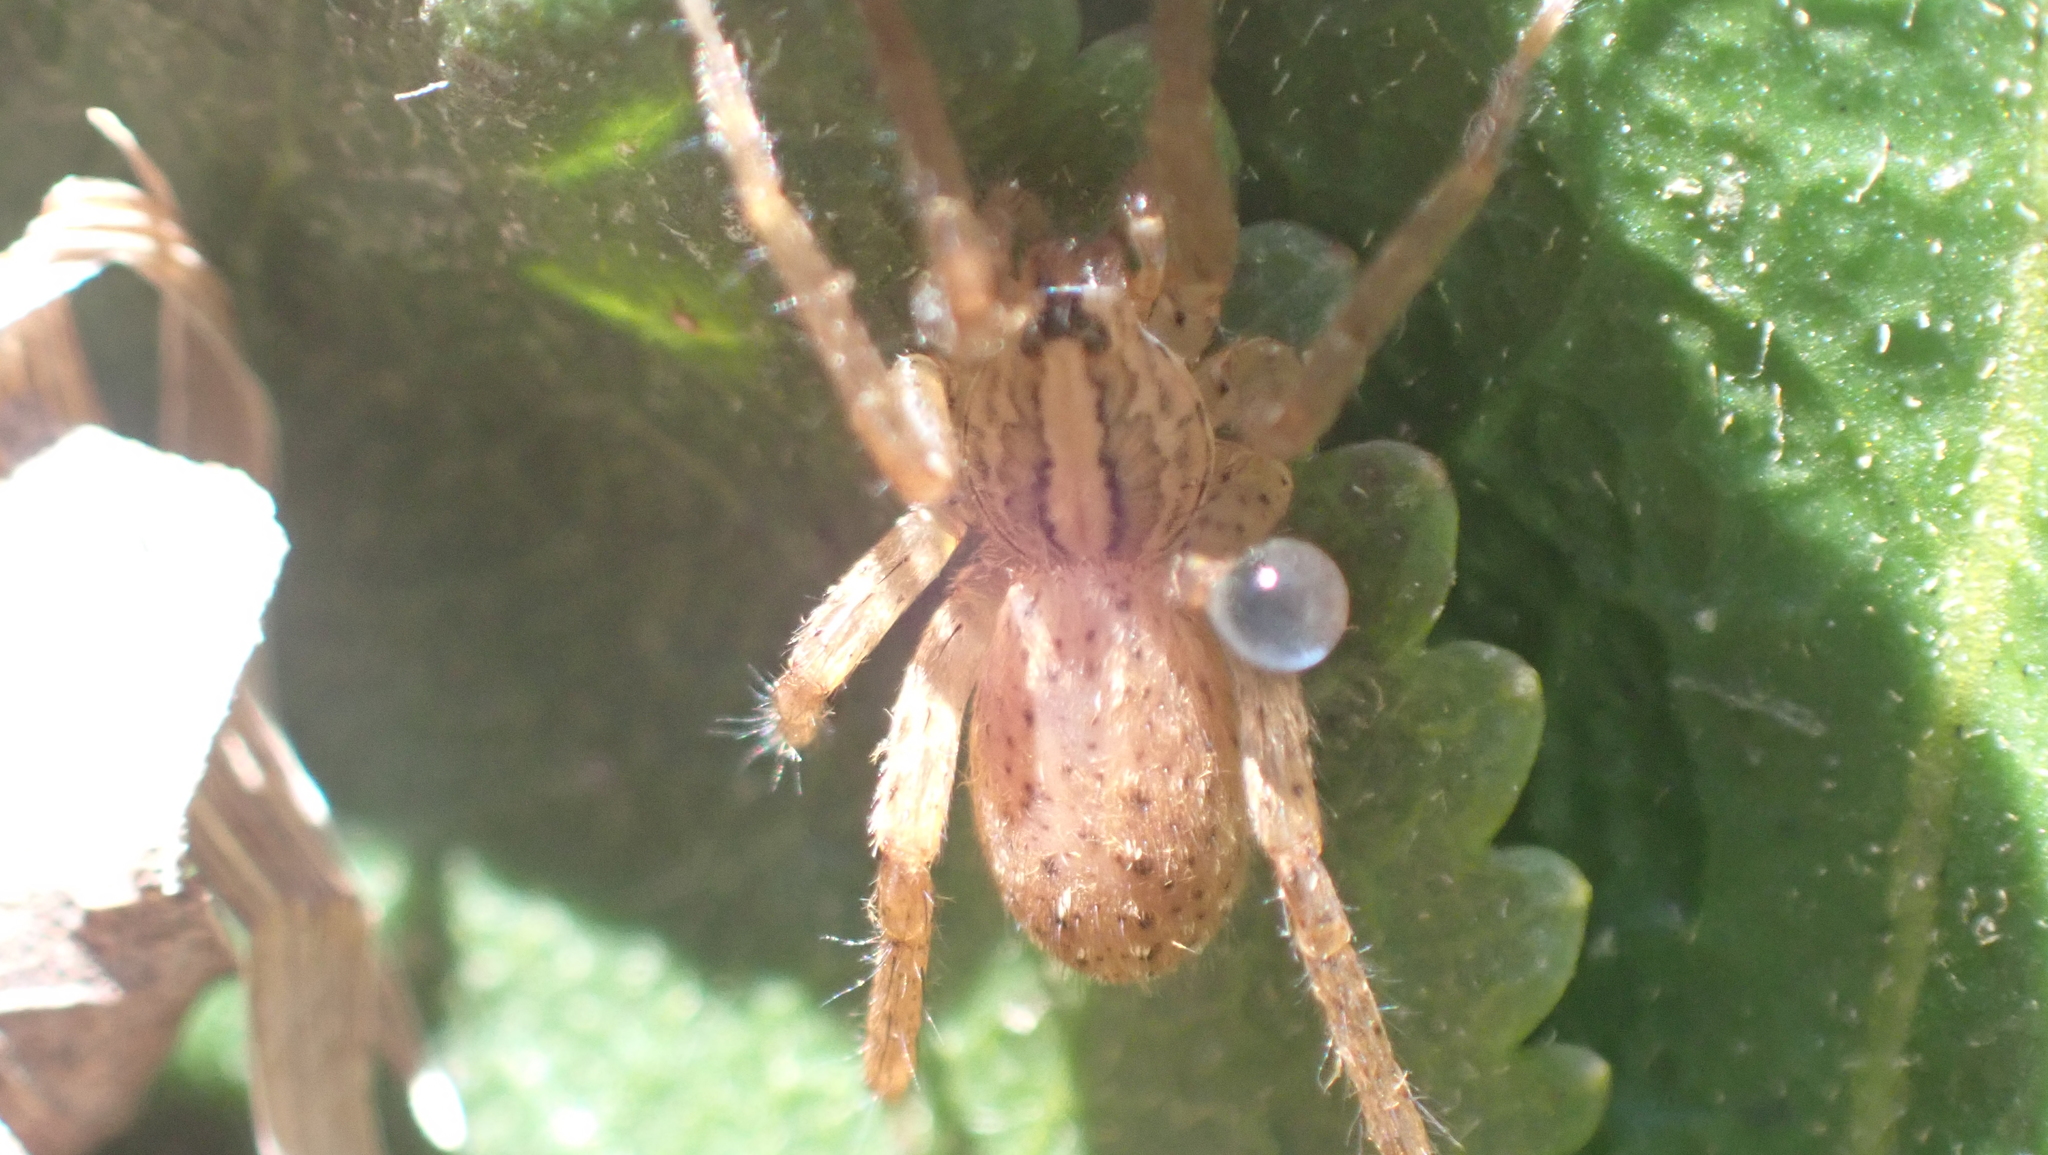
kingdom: Animalia
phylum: Arthropoda
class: Arachnida
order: Araneae
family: Ctenidae
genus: Anahita
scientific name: Anahita punctulata
